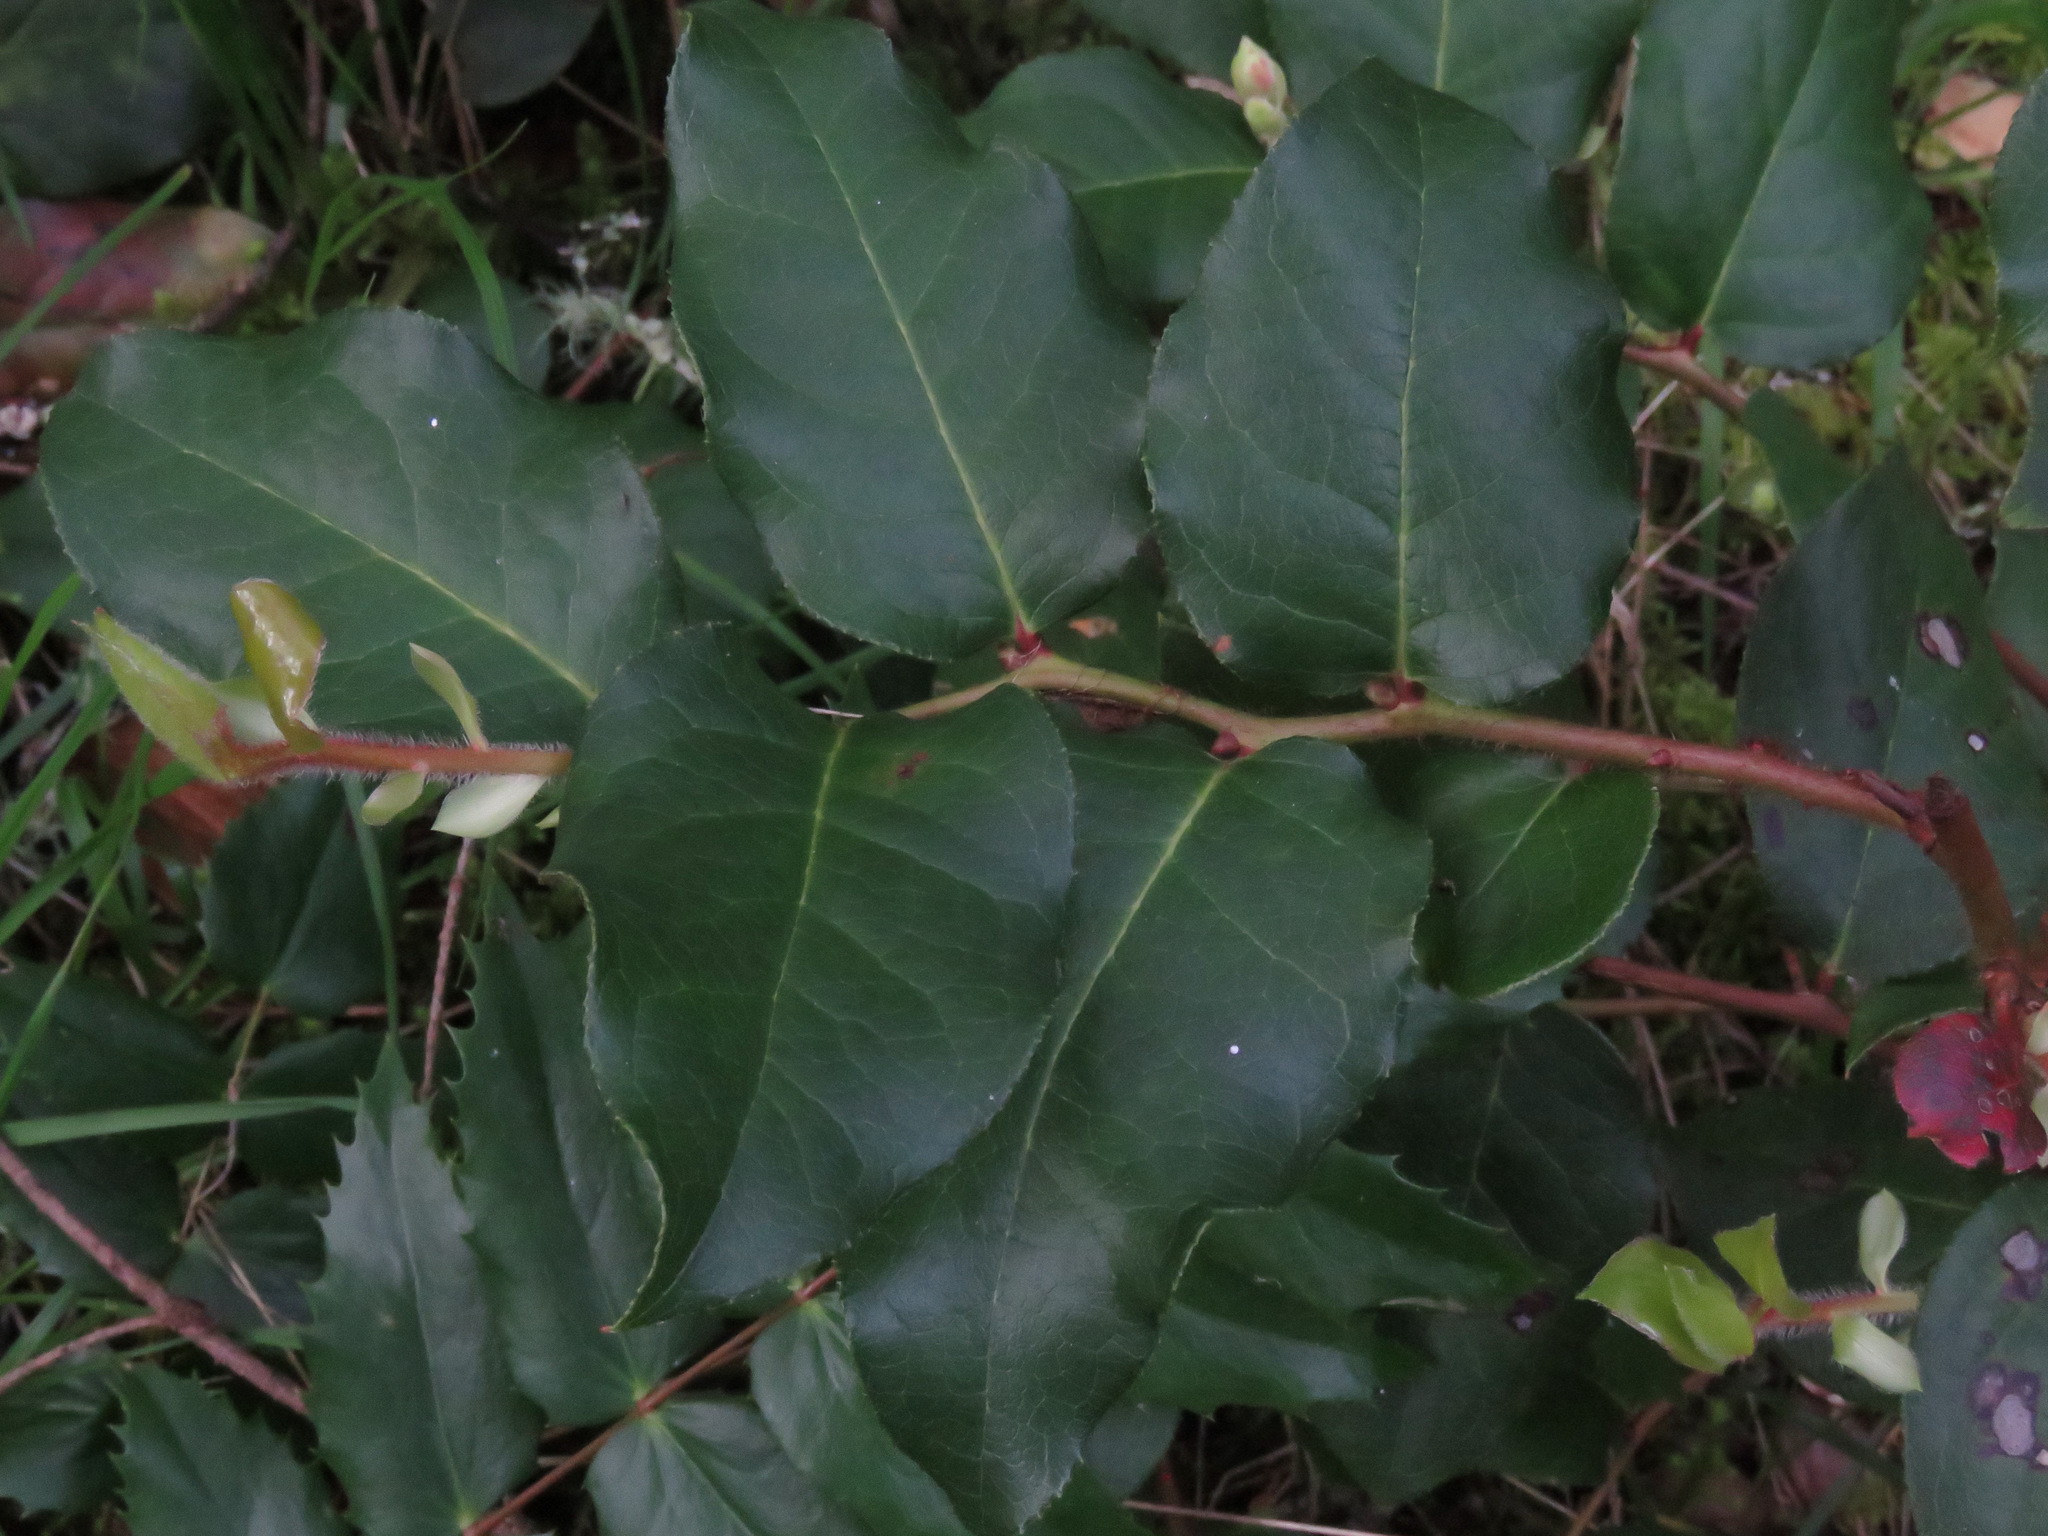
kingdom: Plantae
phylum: Tracheophyta
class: Magnoliopsida
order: Ericales
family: Ericaceae
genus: Gaultheria
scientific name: Gaultheria shallon
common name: Shallon
